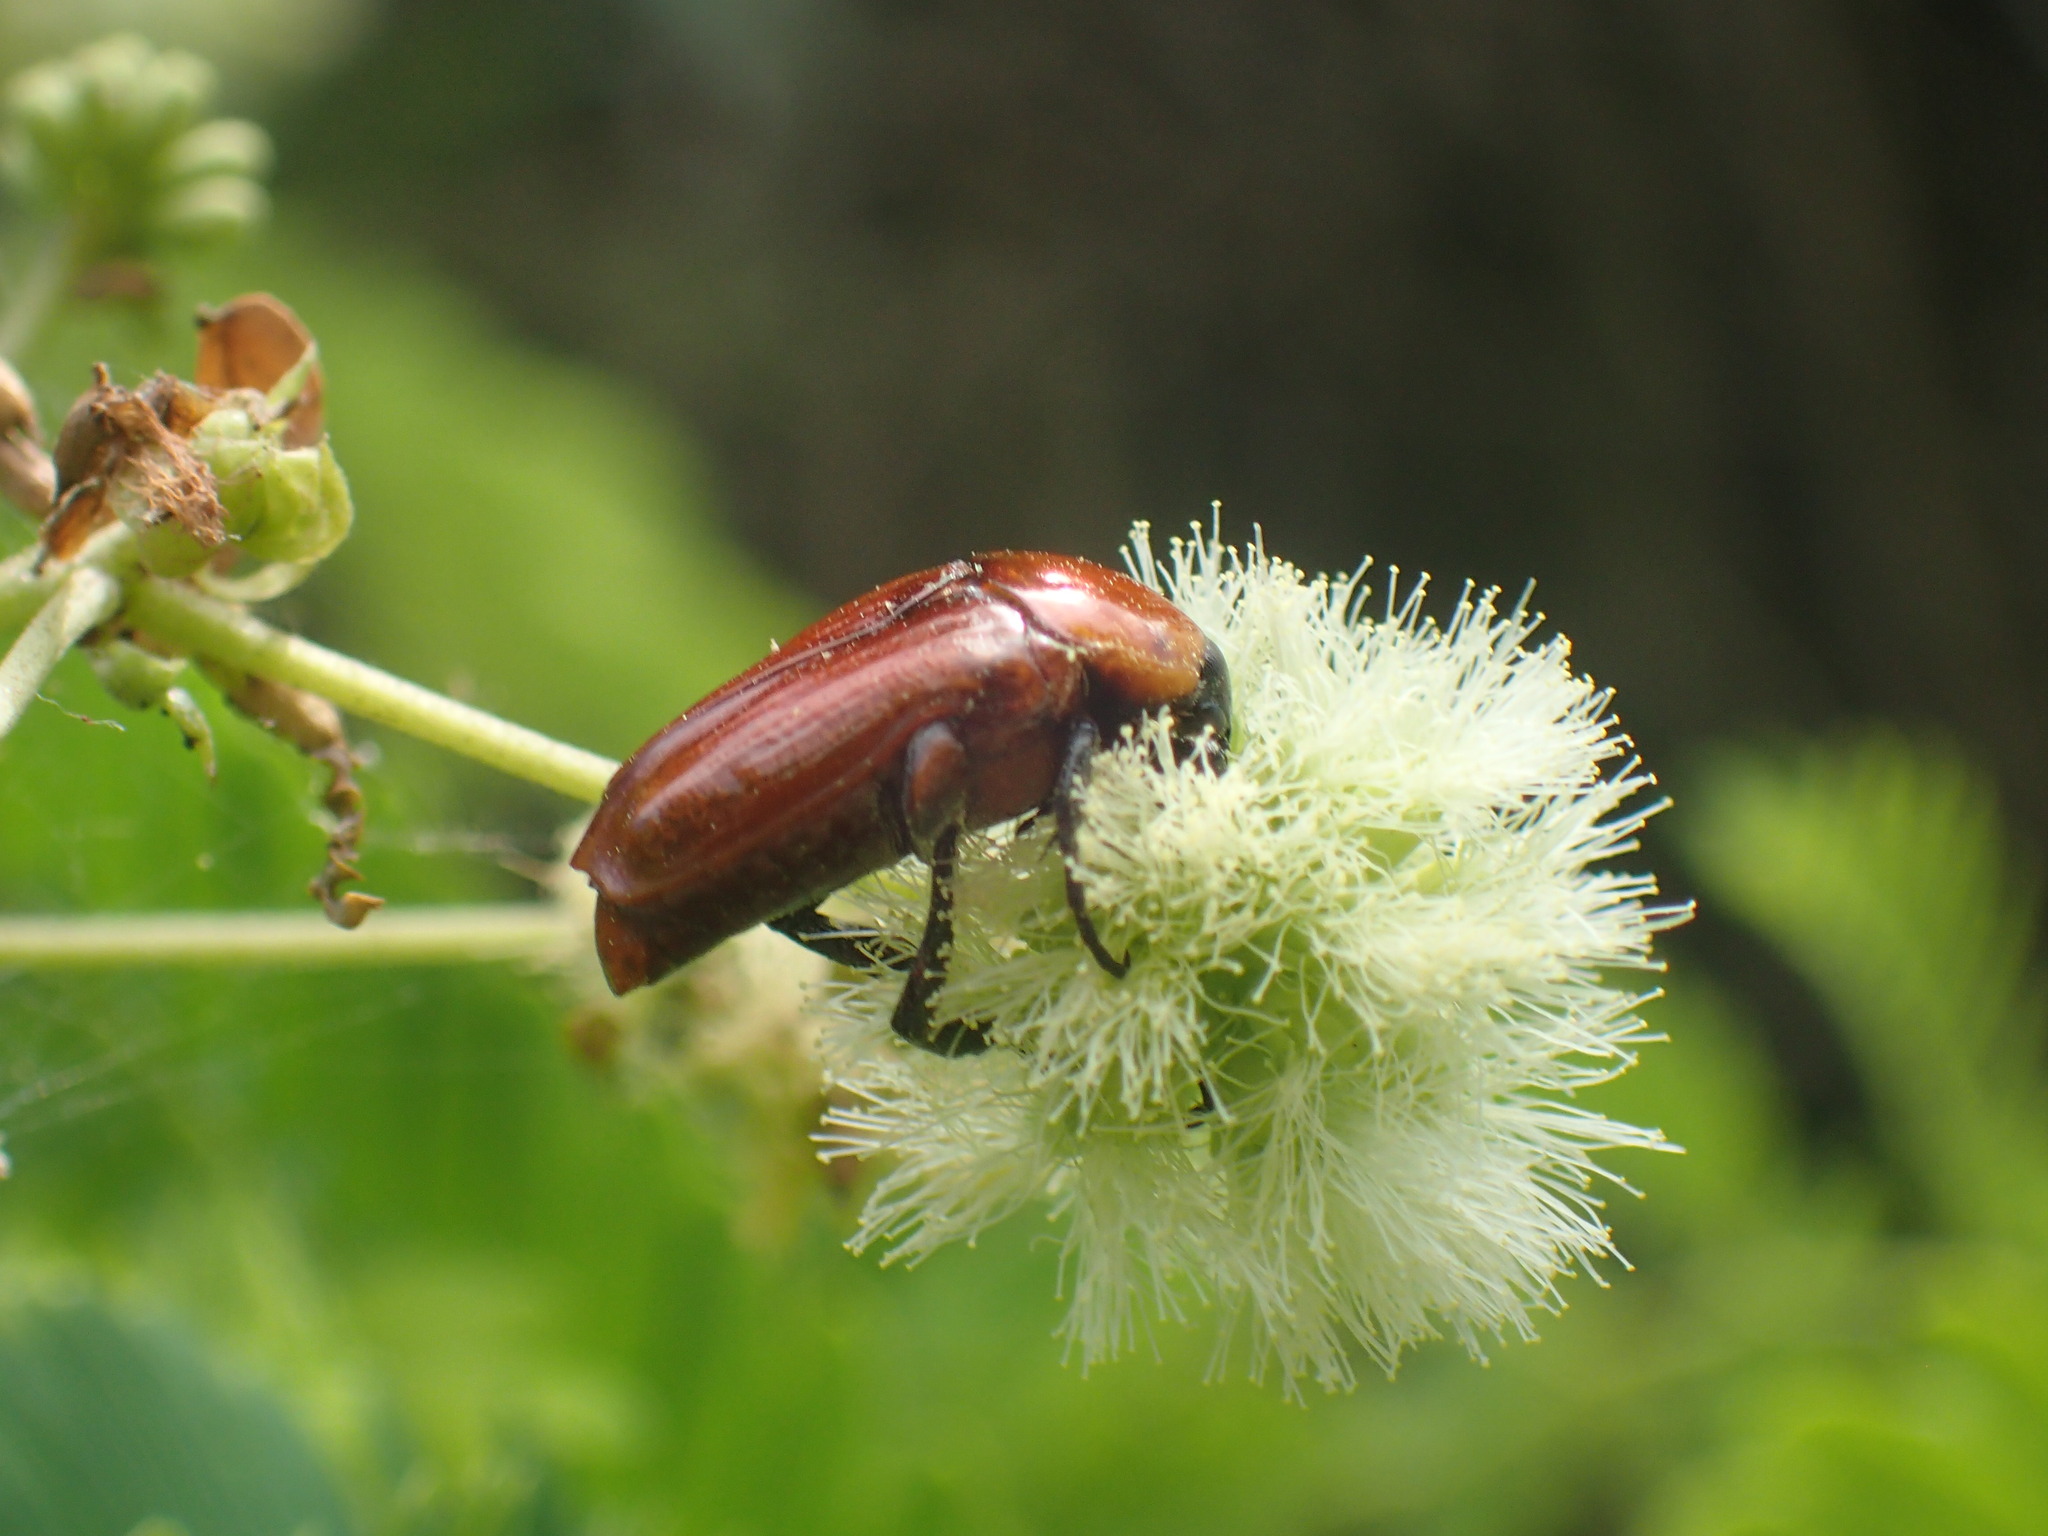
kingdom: Animalia
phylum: Arthropoda
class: Insecta
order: Coleoptera
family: Scarabaeidae
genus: Leucocelis
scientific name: Leucocelis rubra
